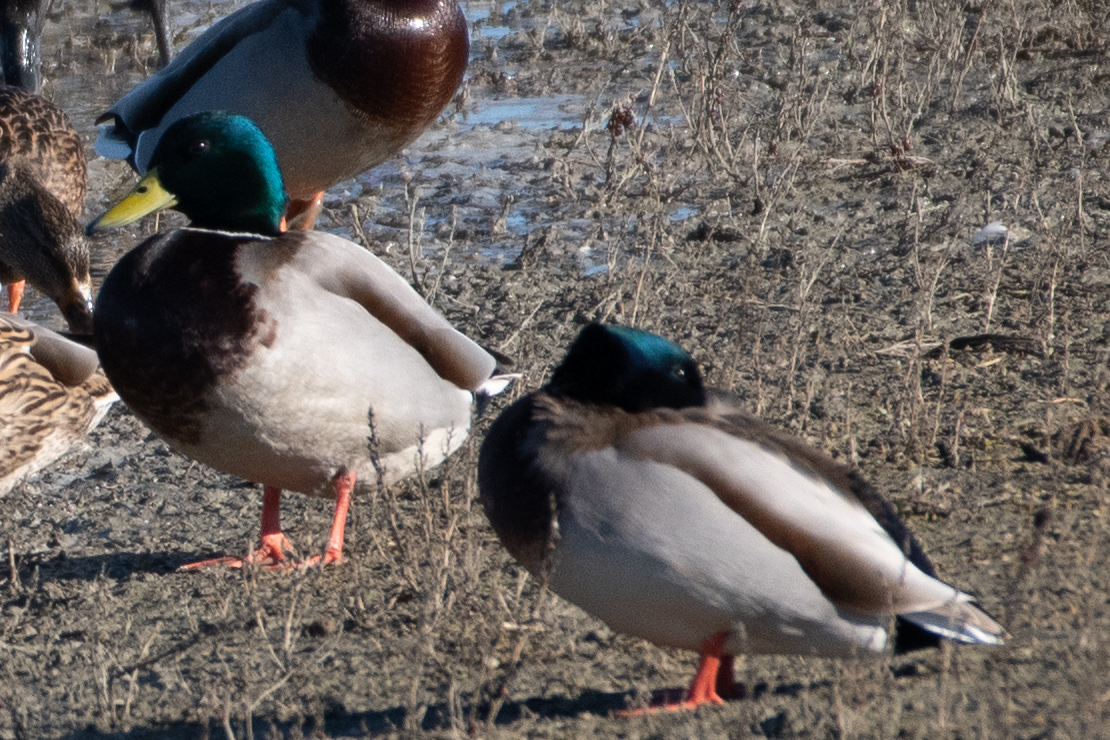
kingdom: Animalia
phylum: Chordata
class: Aves
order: Anseriformes
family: Anatidae
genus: Anas
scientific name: Anas platyrhynchos
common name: Mallard
